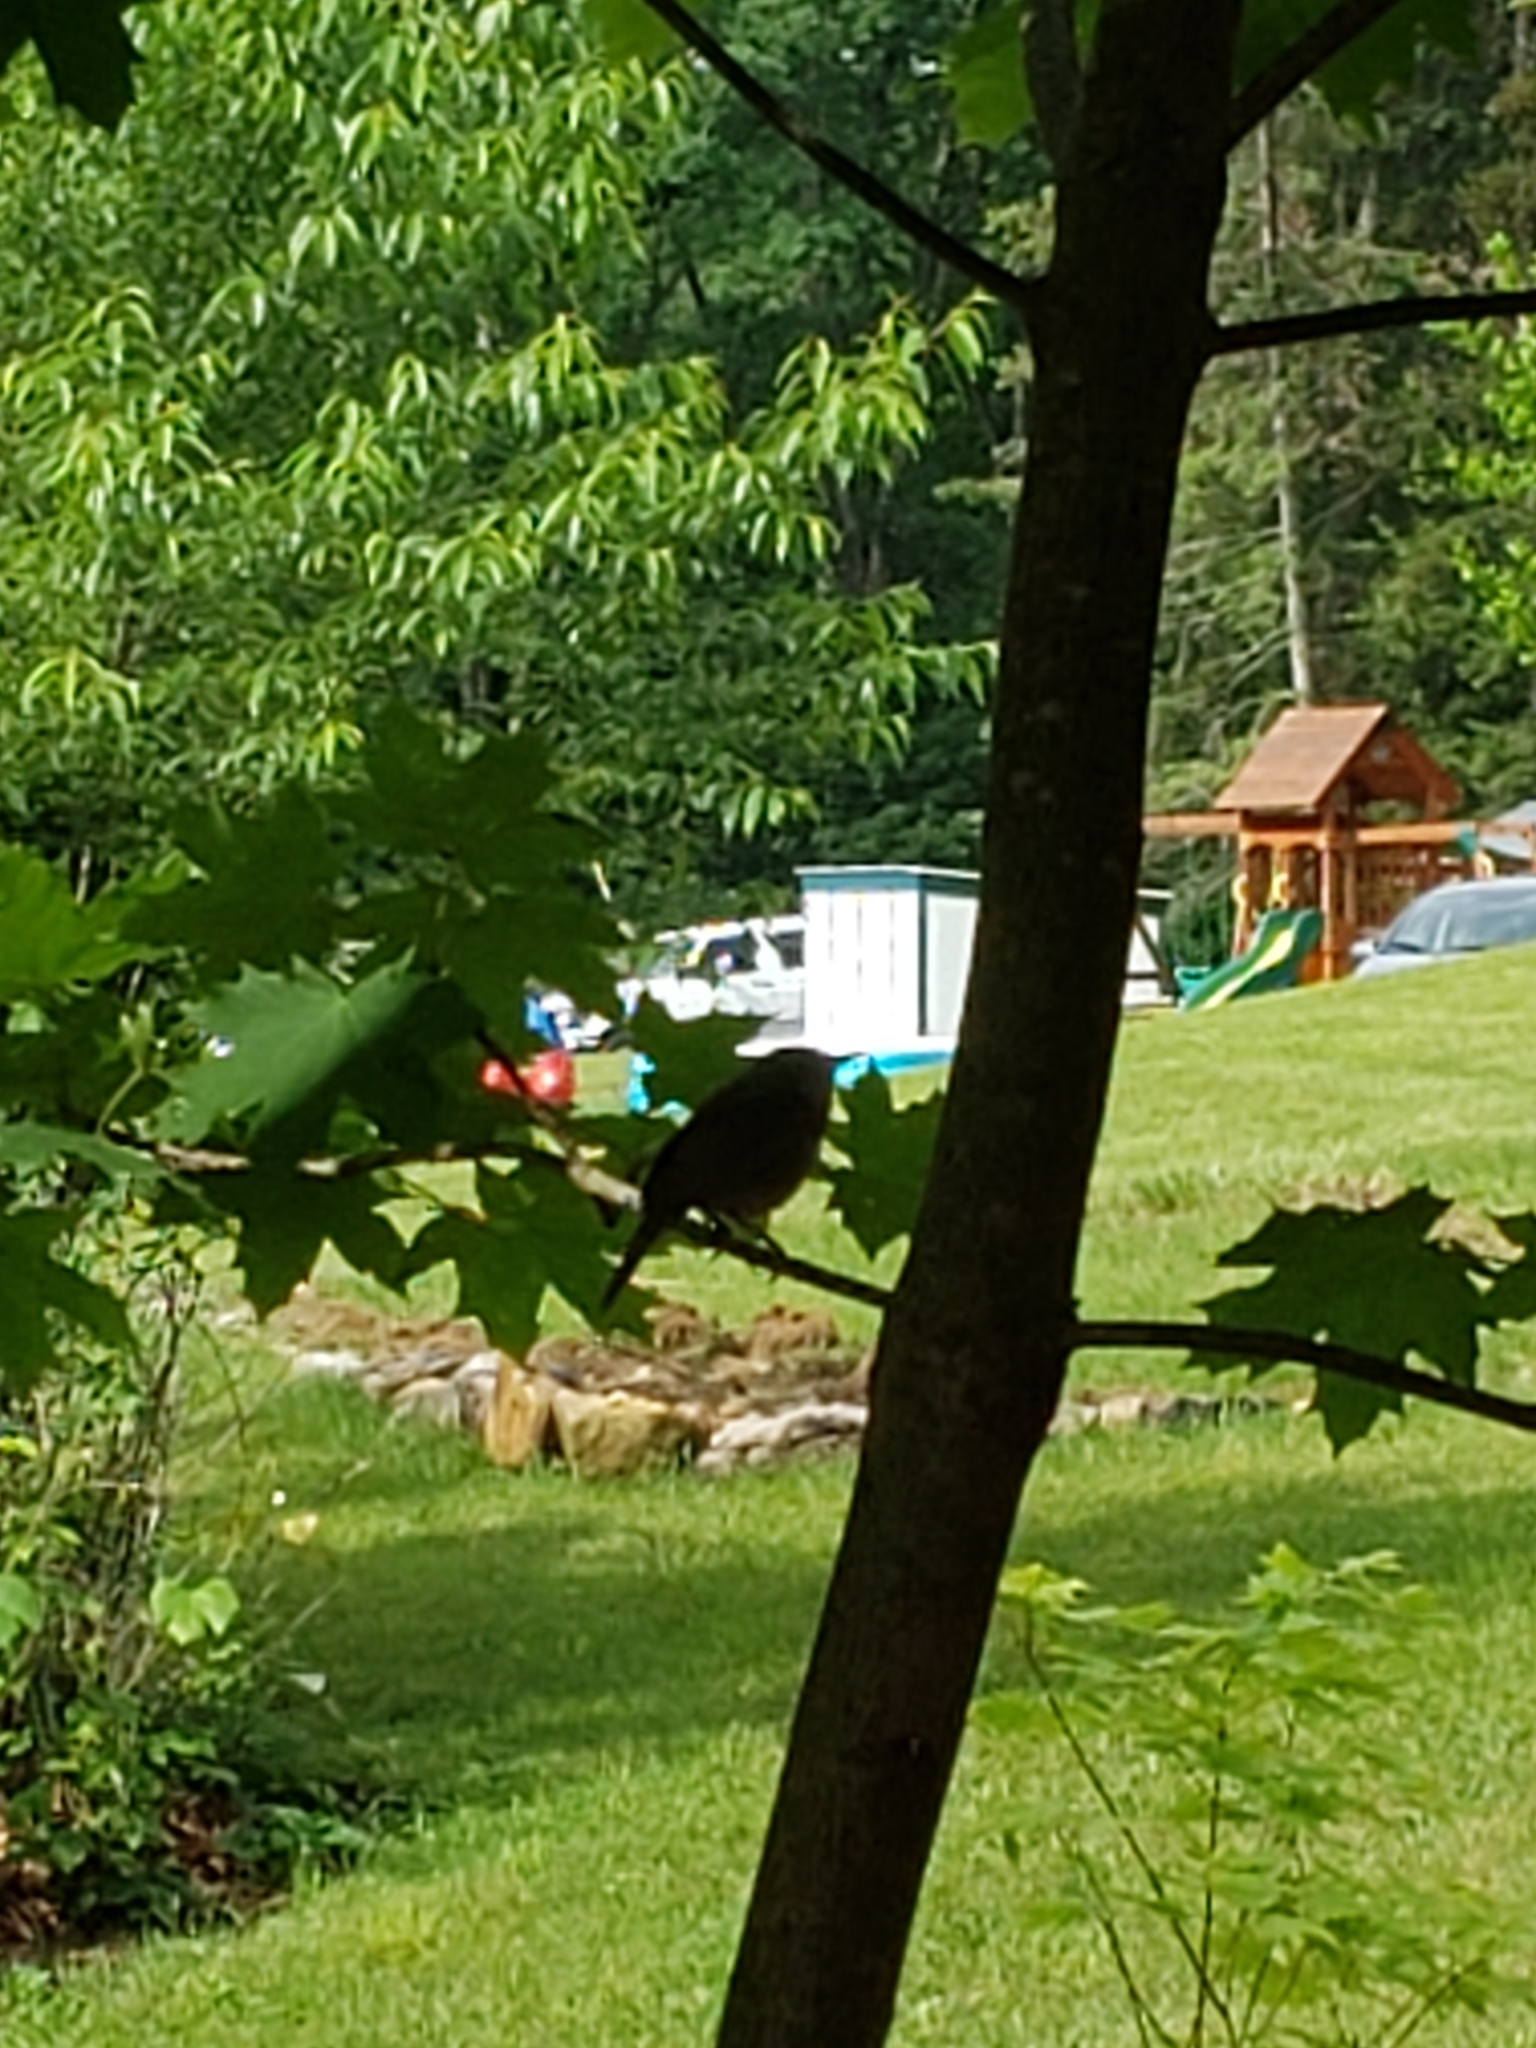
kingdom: Animalia
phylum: Chordata
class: Aves
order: Passeriformes
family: Troglodytidae
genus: Troglodytes
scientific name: Troglodytes aedon
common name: House wren
